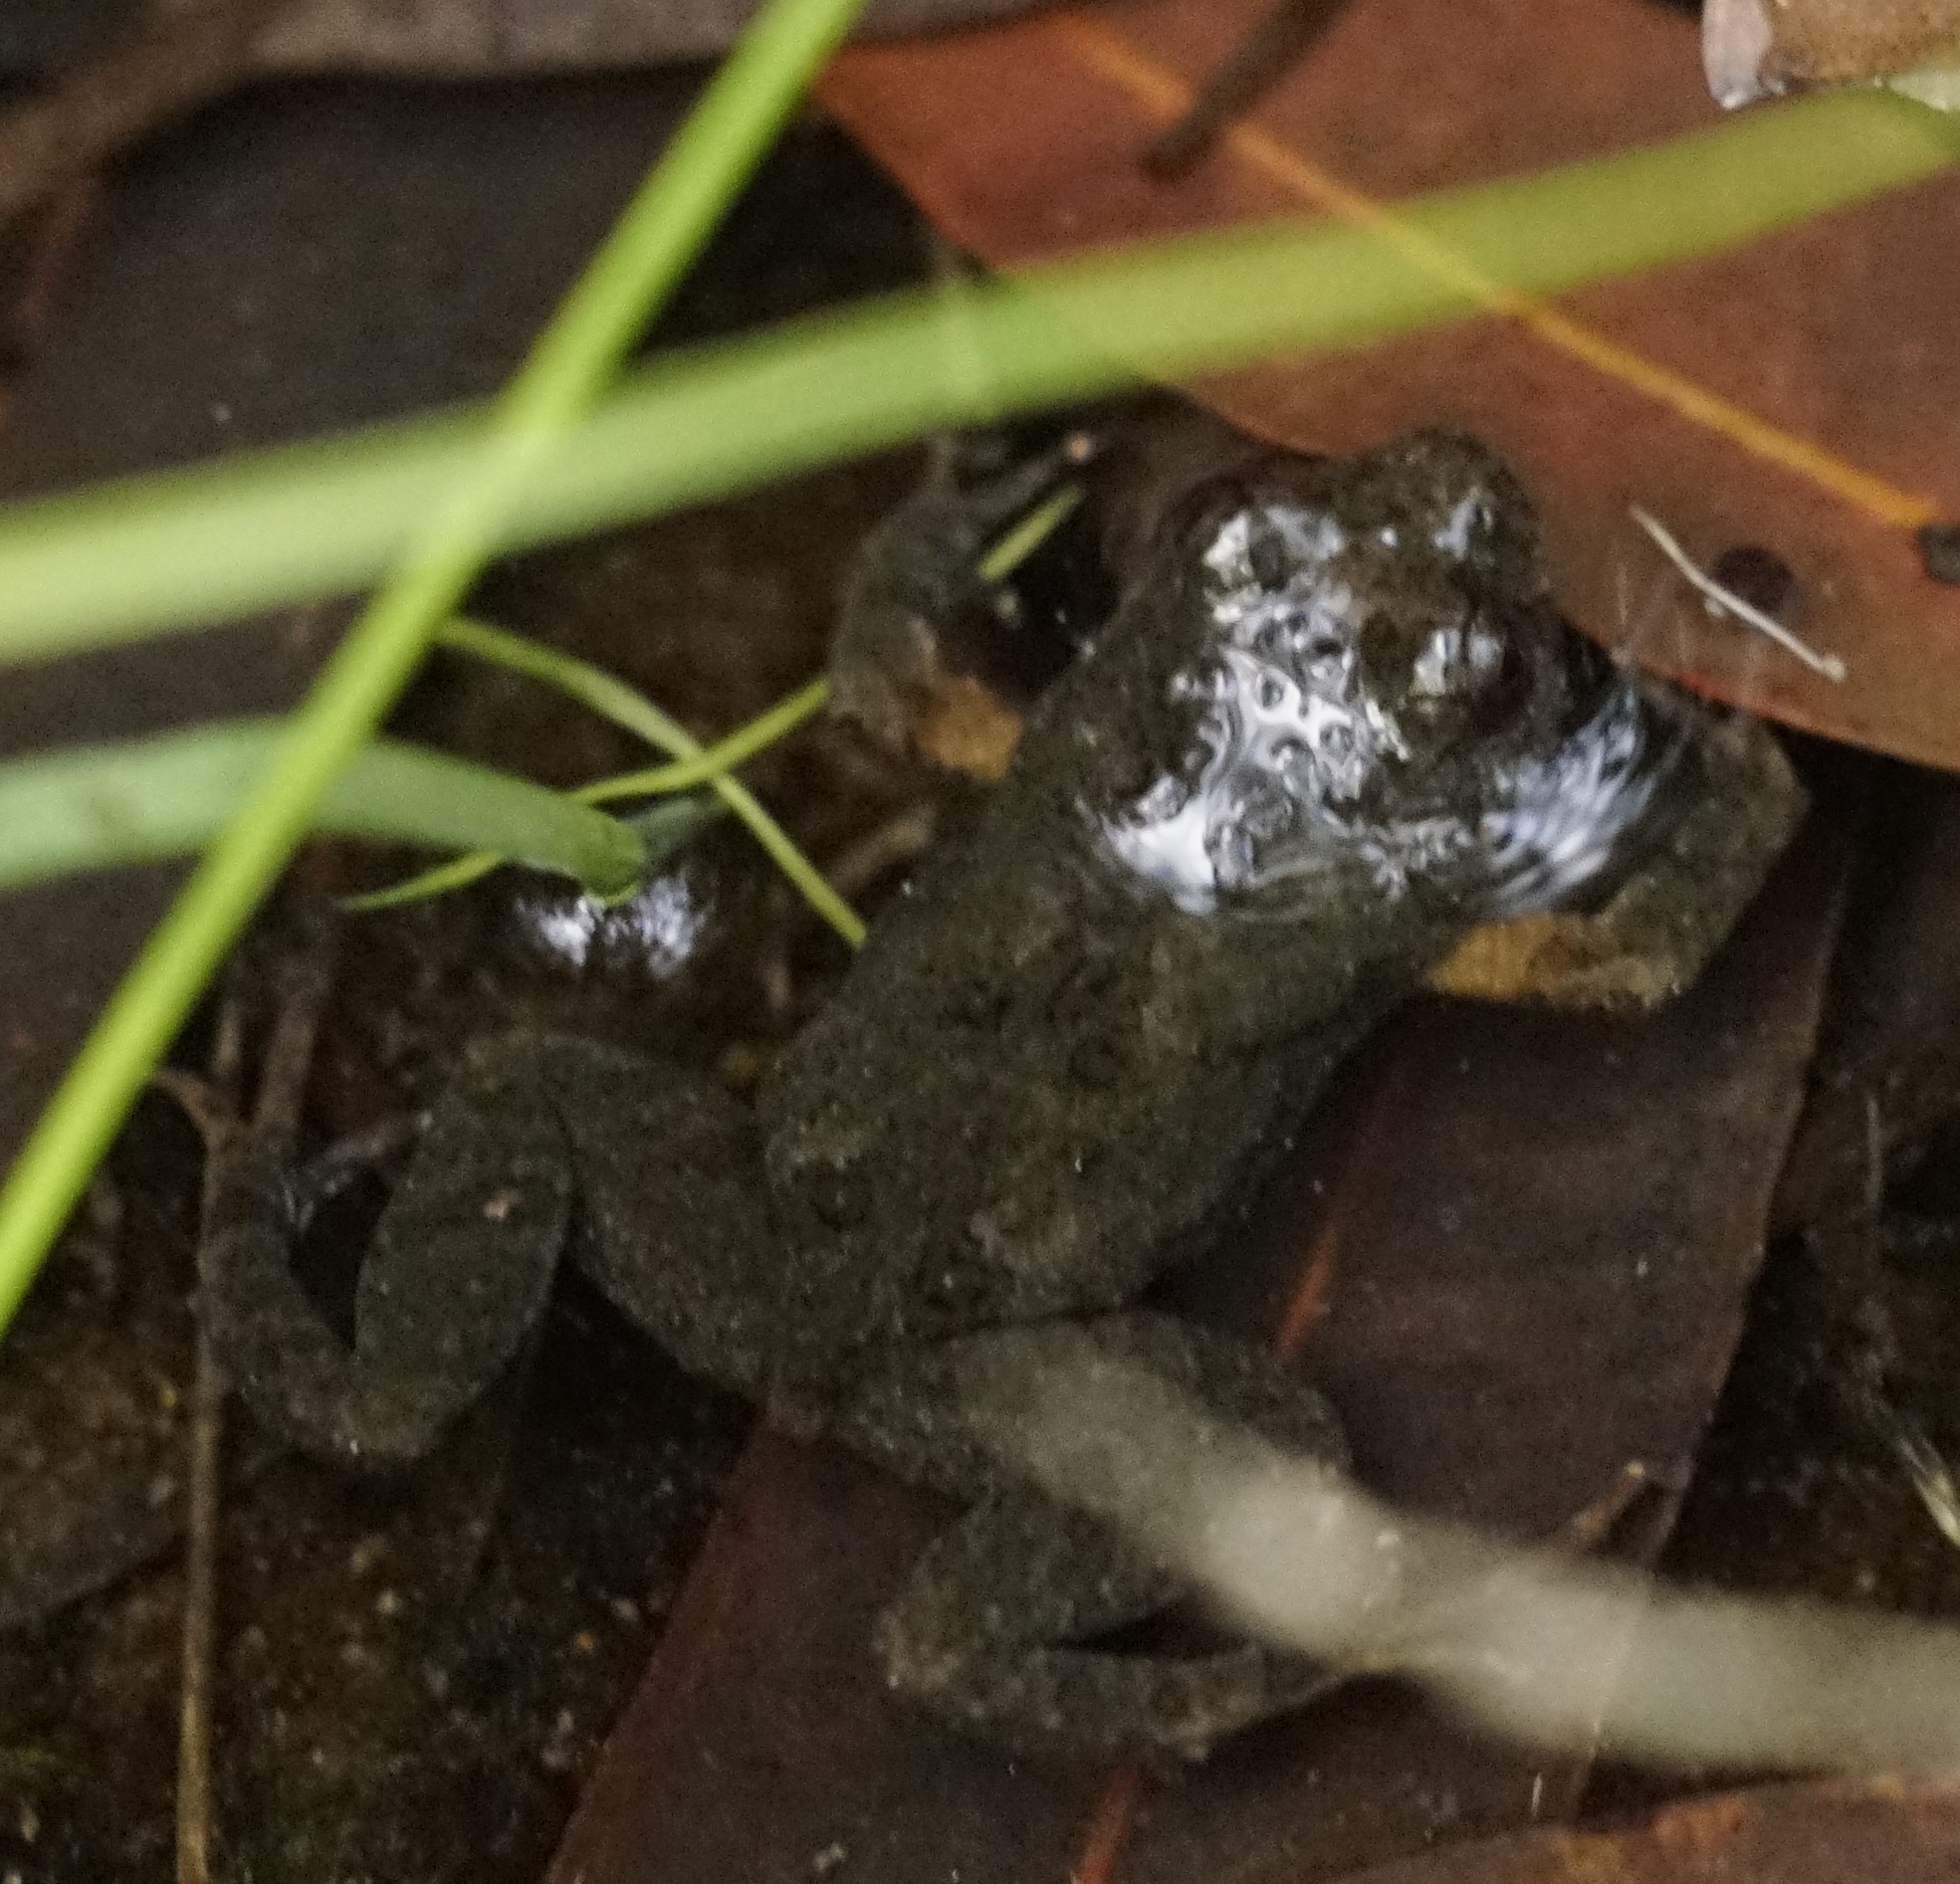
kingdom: Animalia
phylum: Chordata
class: Amphibia
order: Anura
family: Myobatrachidae
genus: Crinia
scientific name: Crinia signifera
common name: Brown froglet
